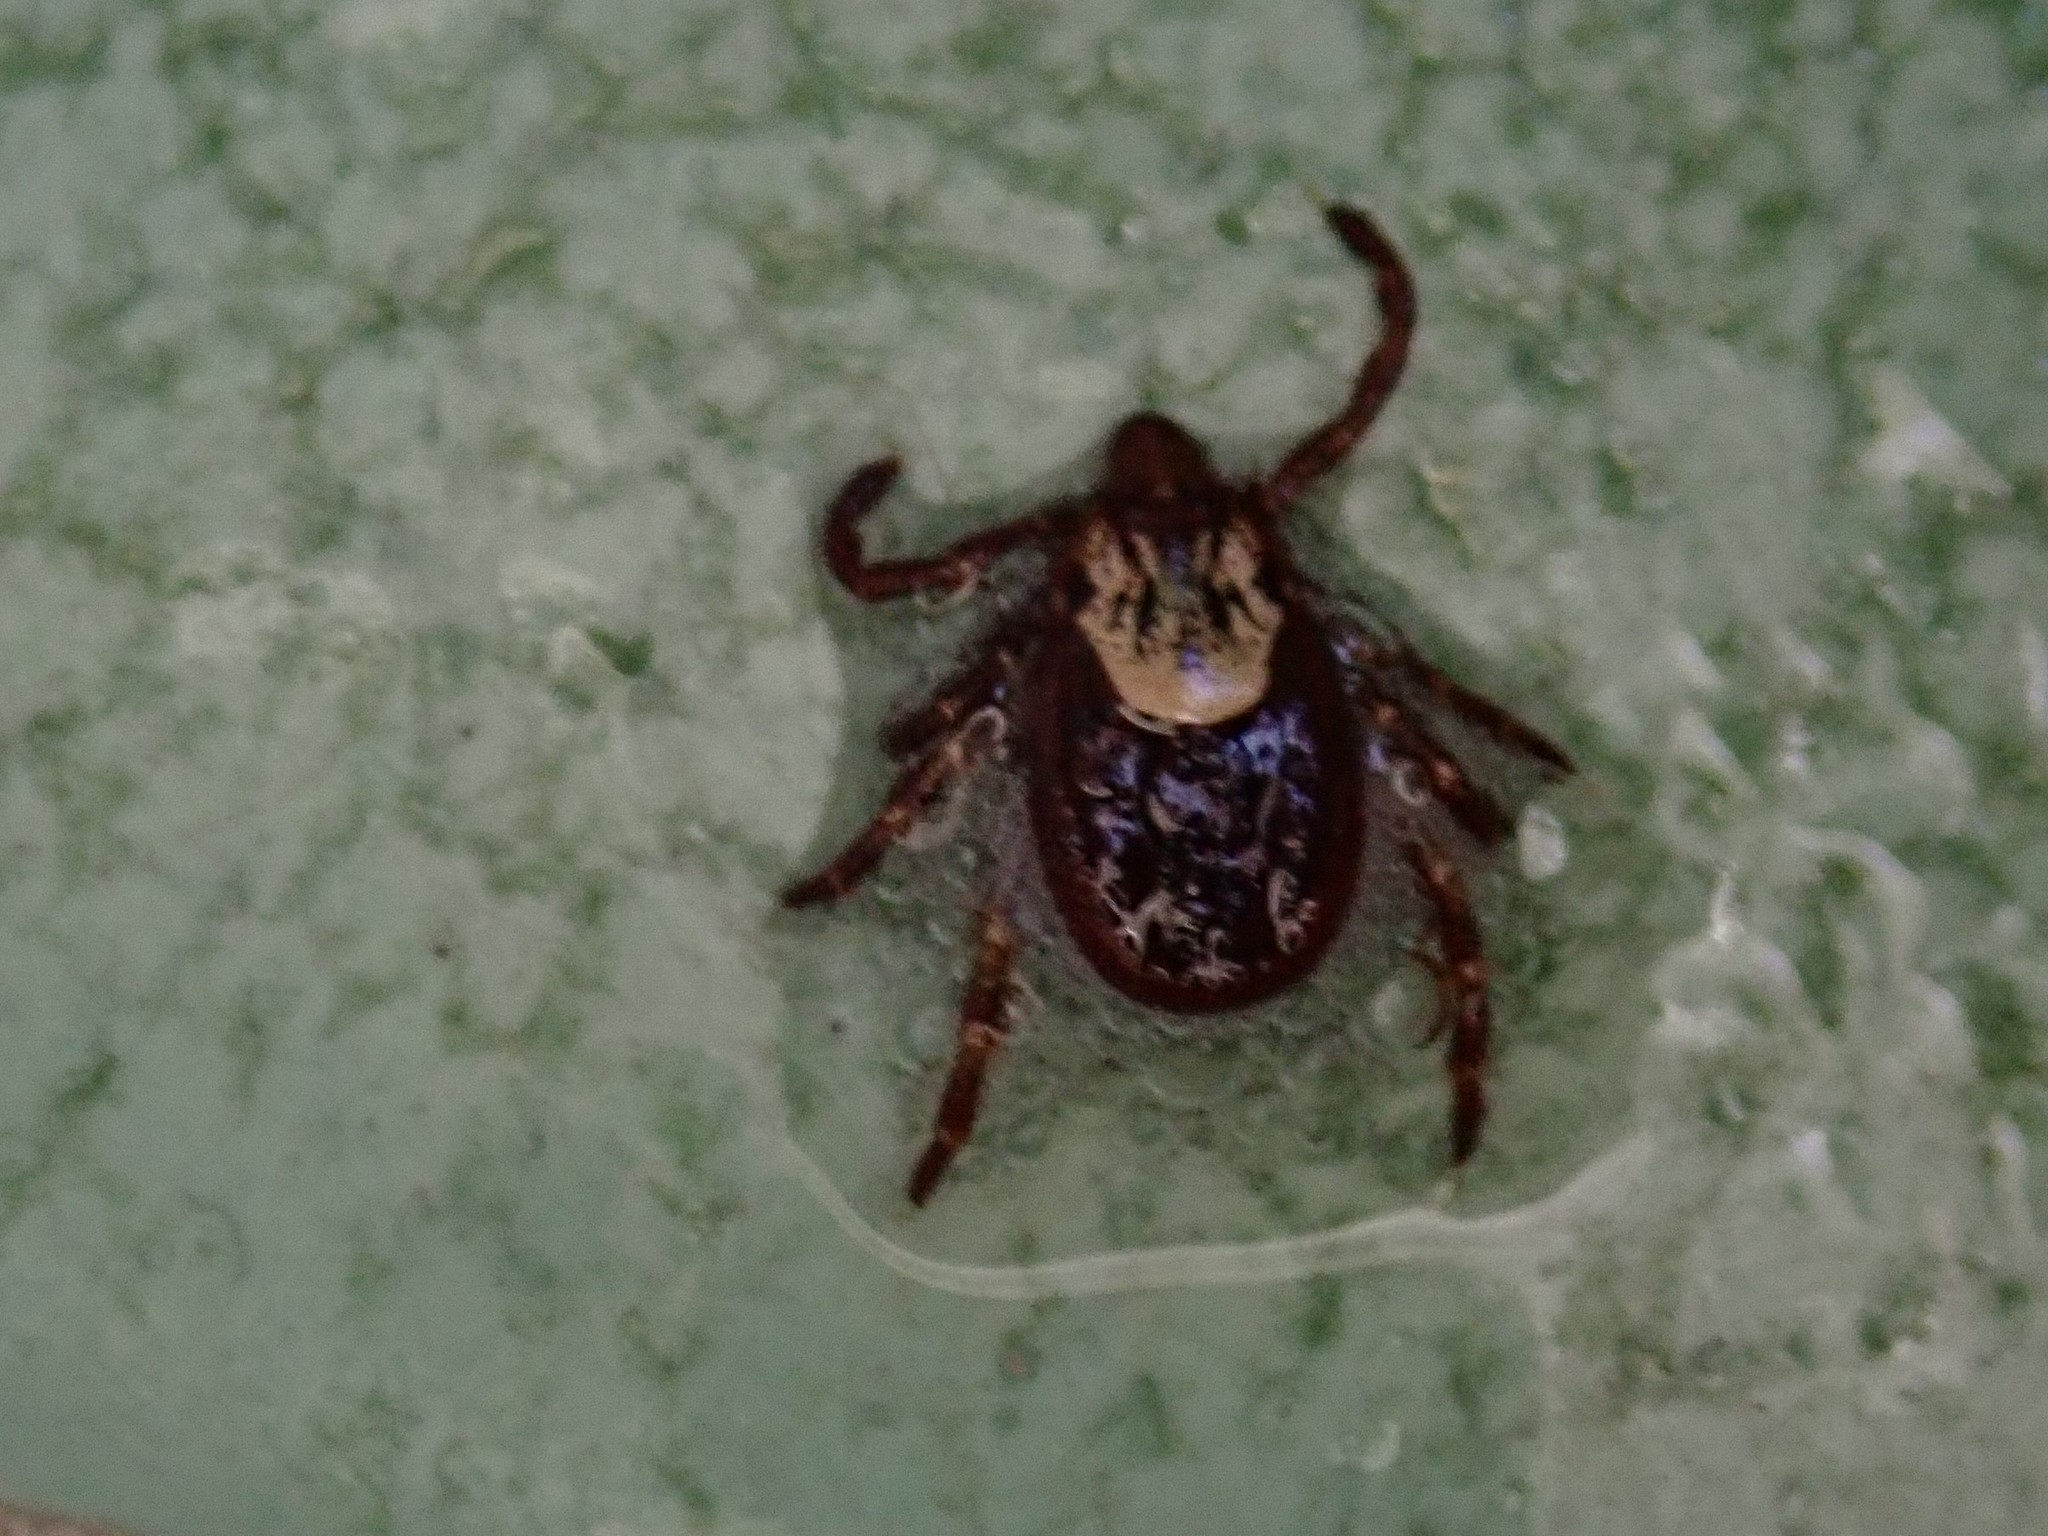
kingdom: Animalia
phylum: Arthropoda
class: Arachnida
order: Ixodida
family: Ixodidae
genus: Dermacentor
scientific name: Dermacentor variabilis
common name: American dog tick
